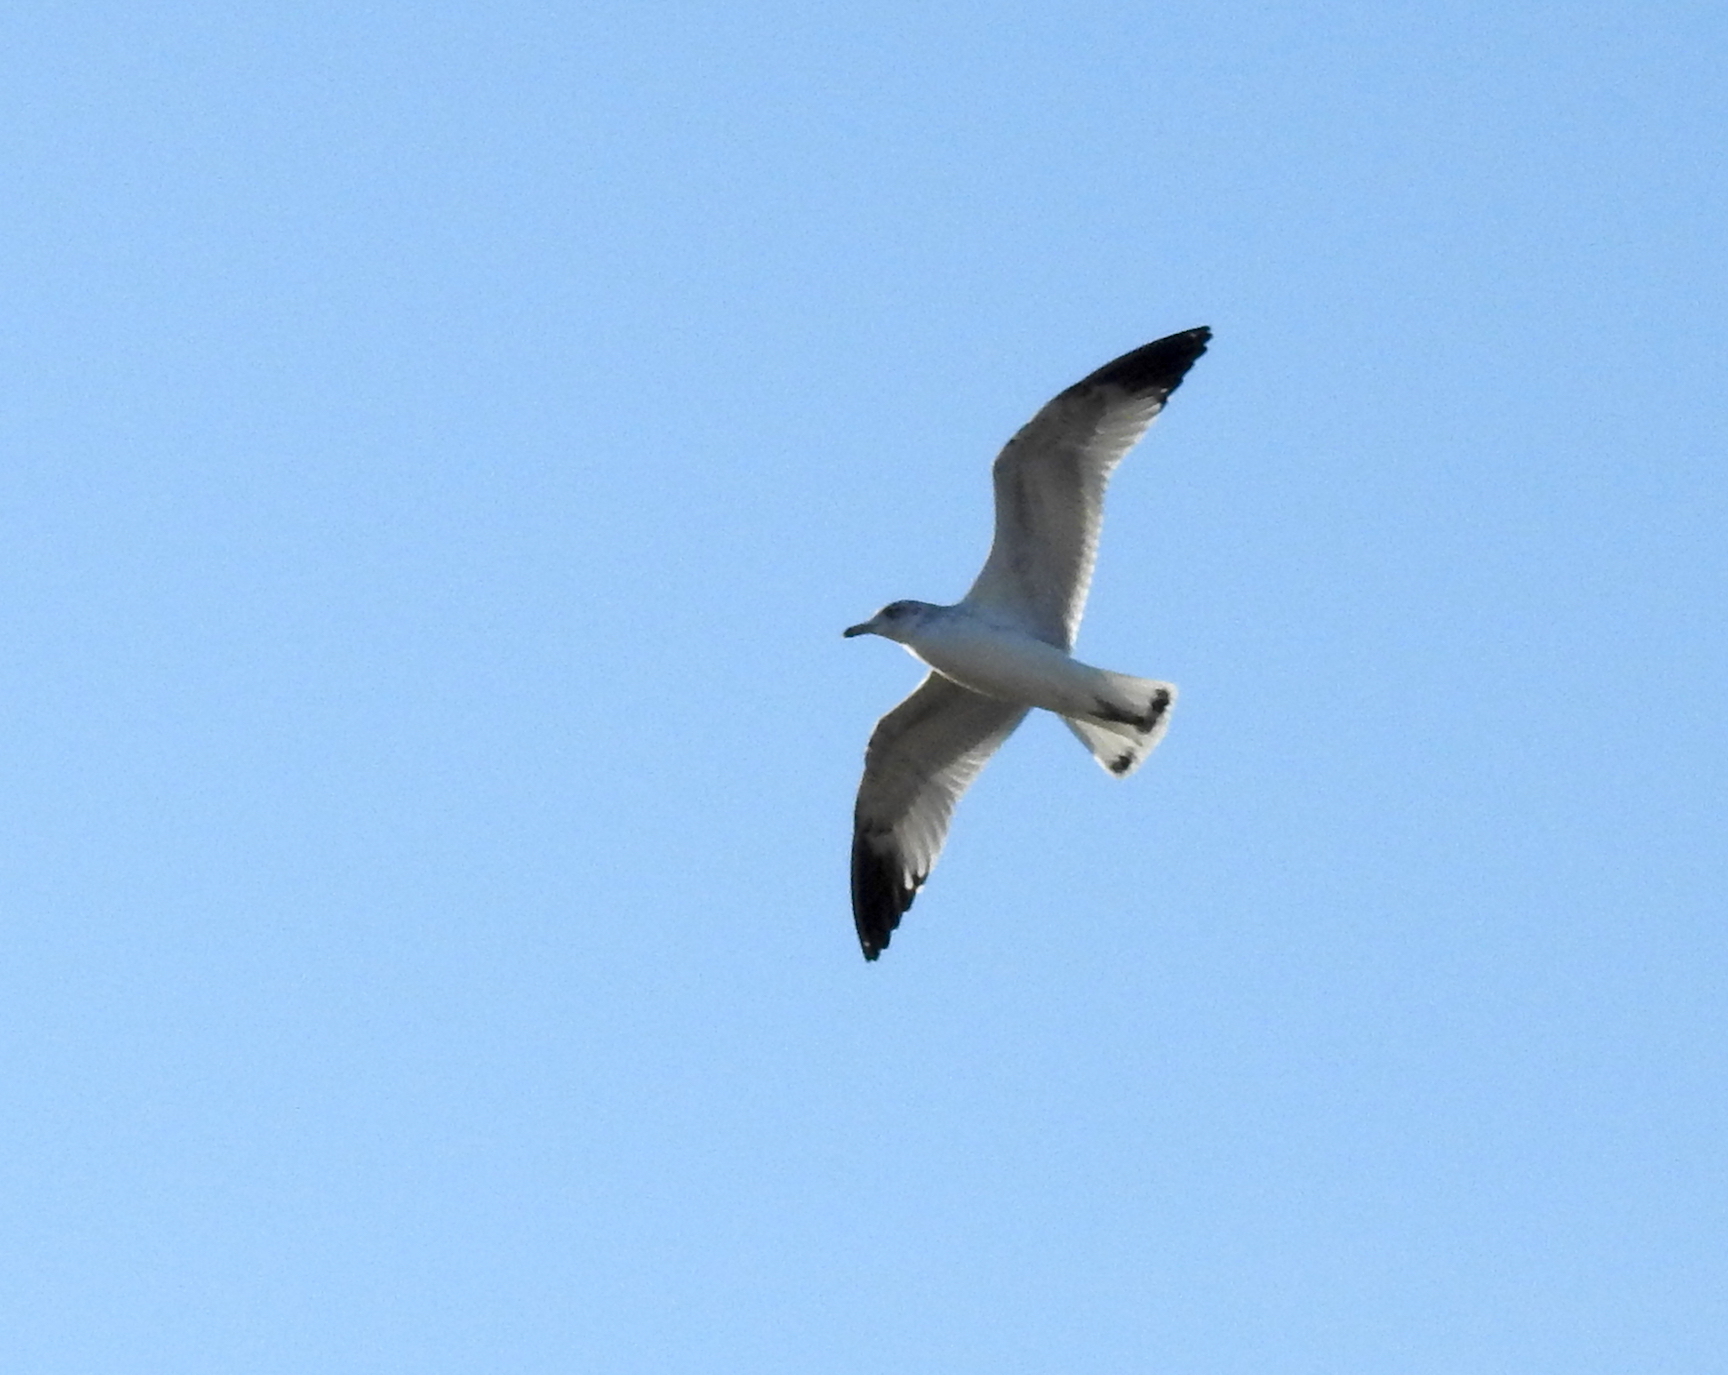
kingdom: Animalia
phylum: Chordata
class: Aves
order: Charadriiformes
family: Laridae
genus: Larus
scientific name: Larus californicus
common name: California gull
